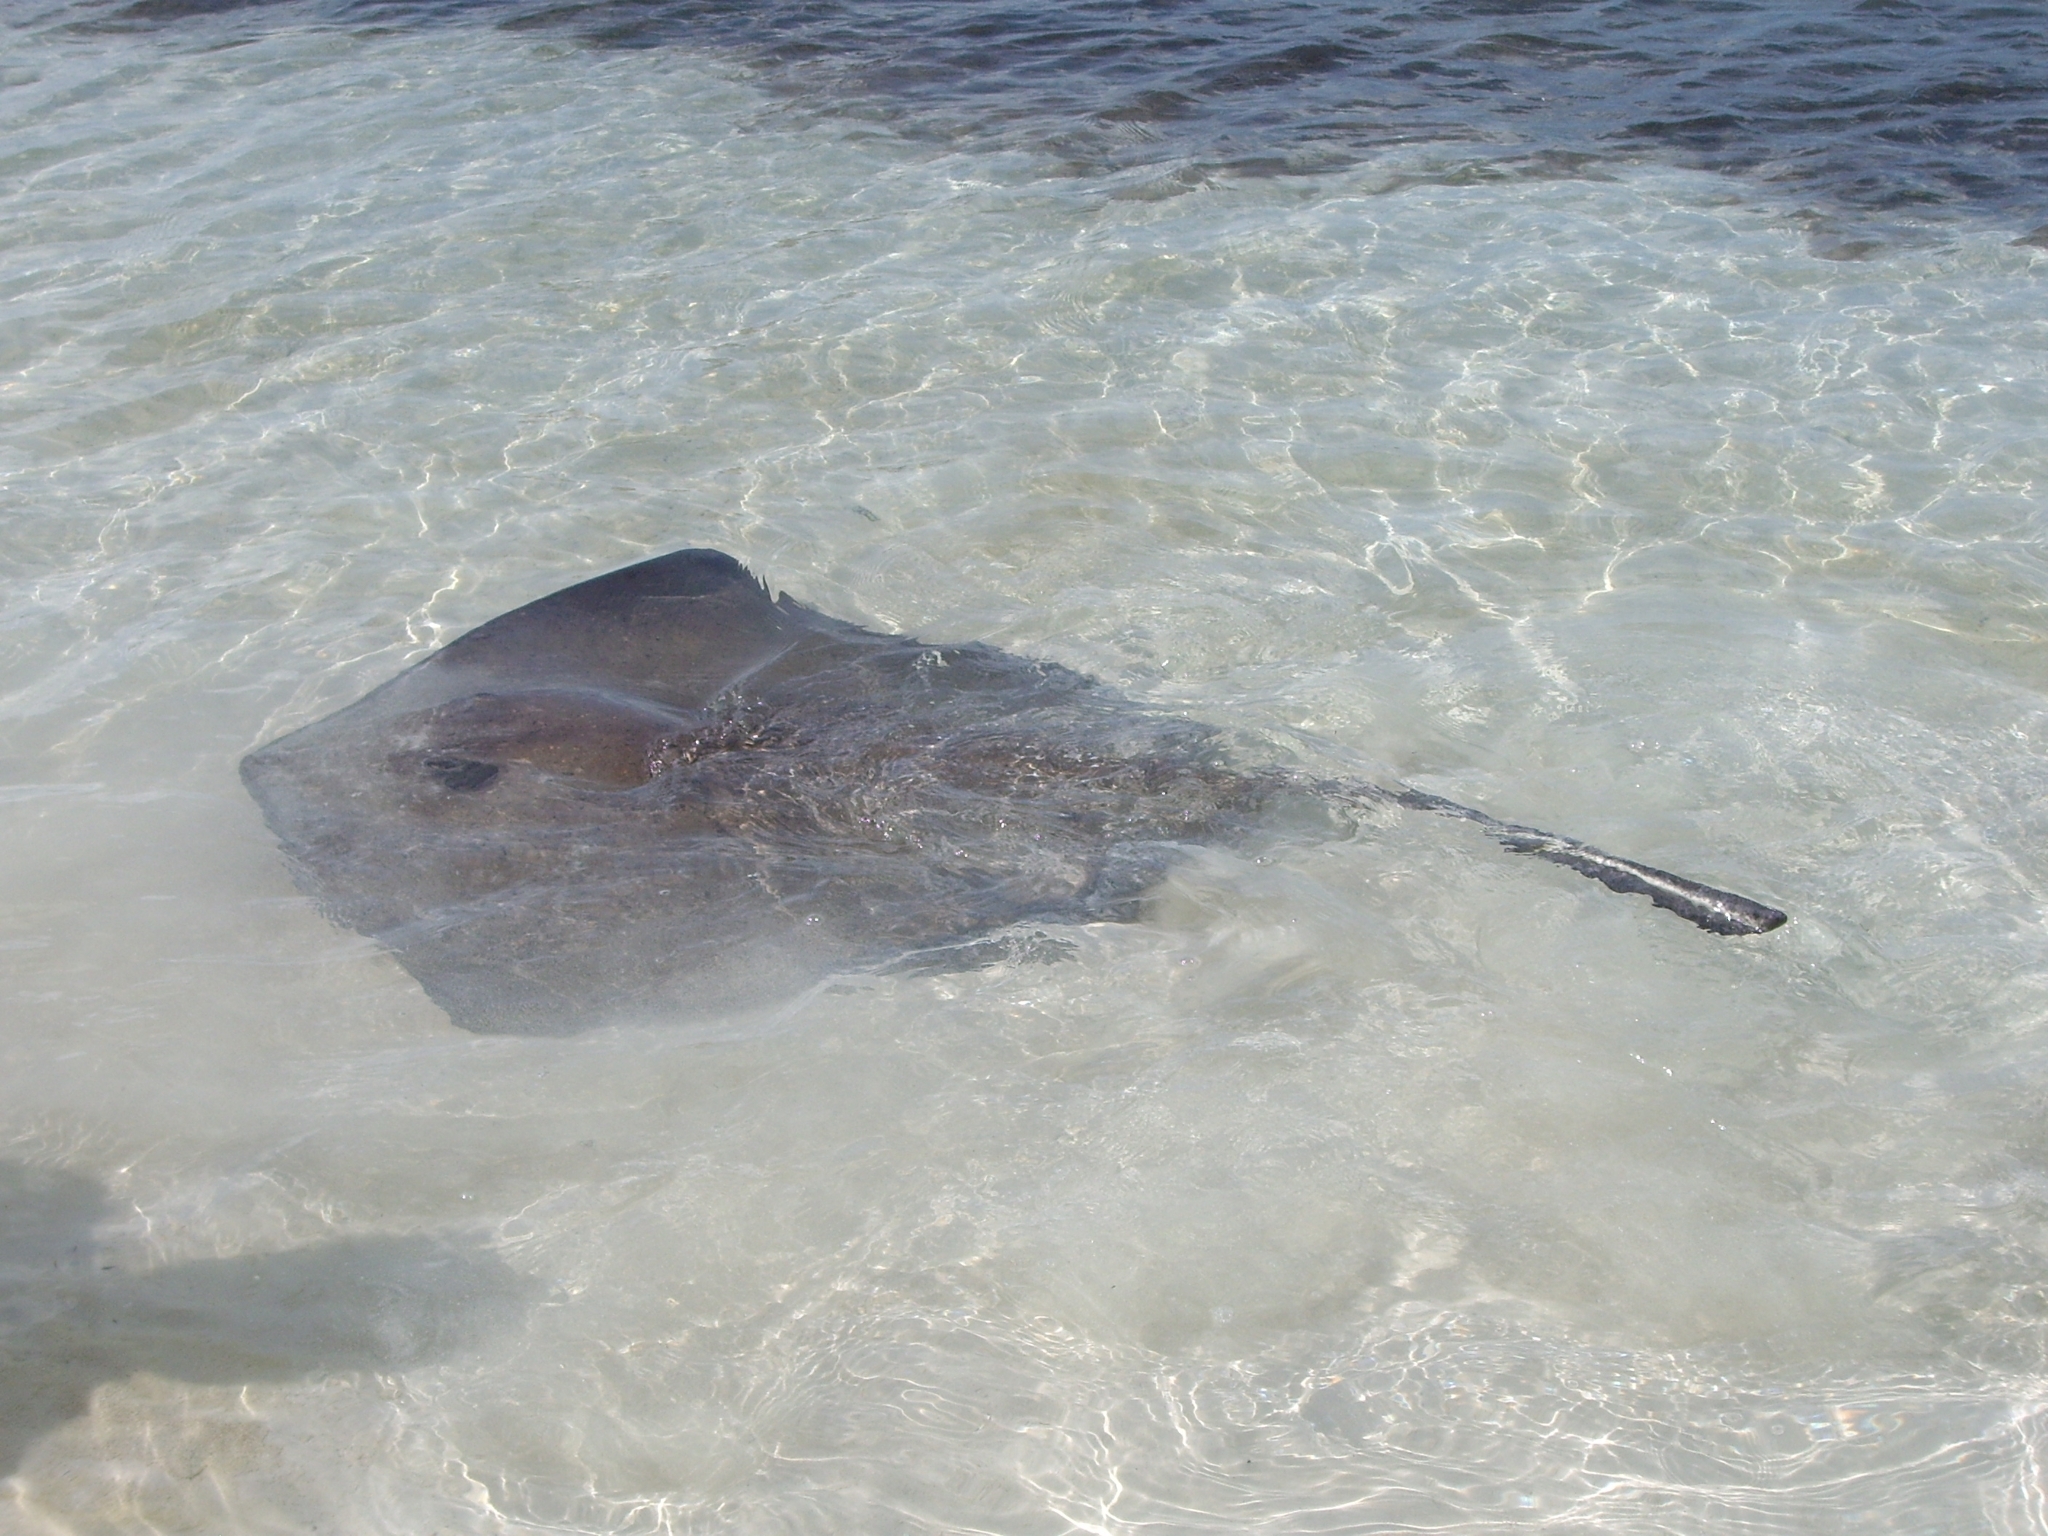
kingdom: Animalia
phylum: Chordata
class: Elasmobranchii
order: Myliobatiformes
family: Dasyatidae
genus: Hypanus
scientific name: Hypanus americanus
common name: Southern stingray
